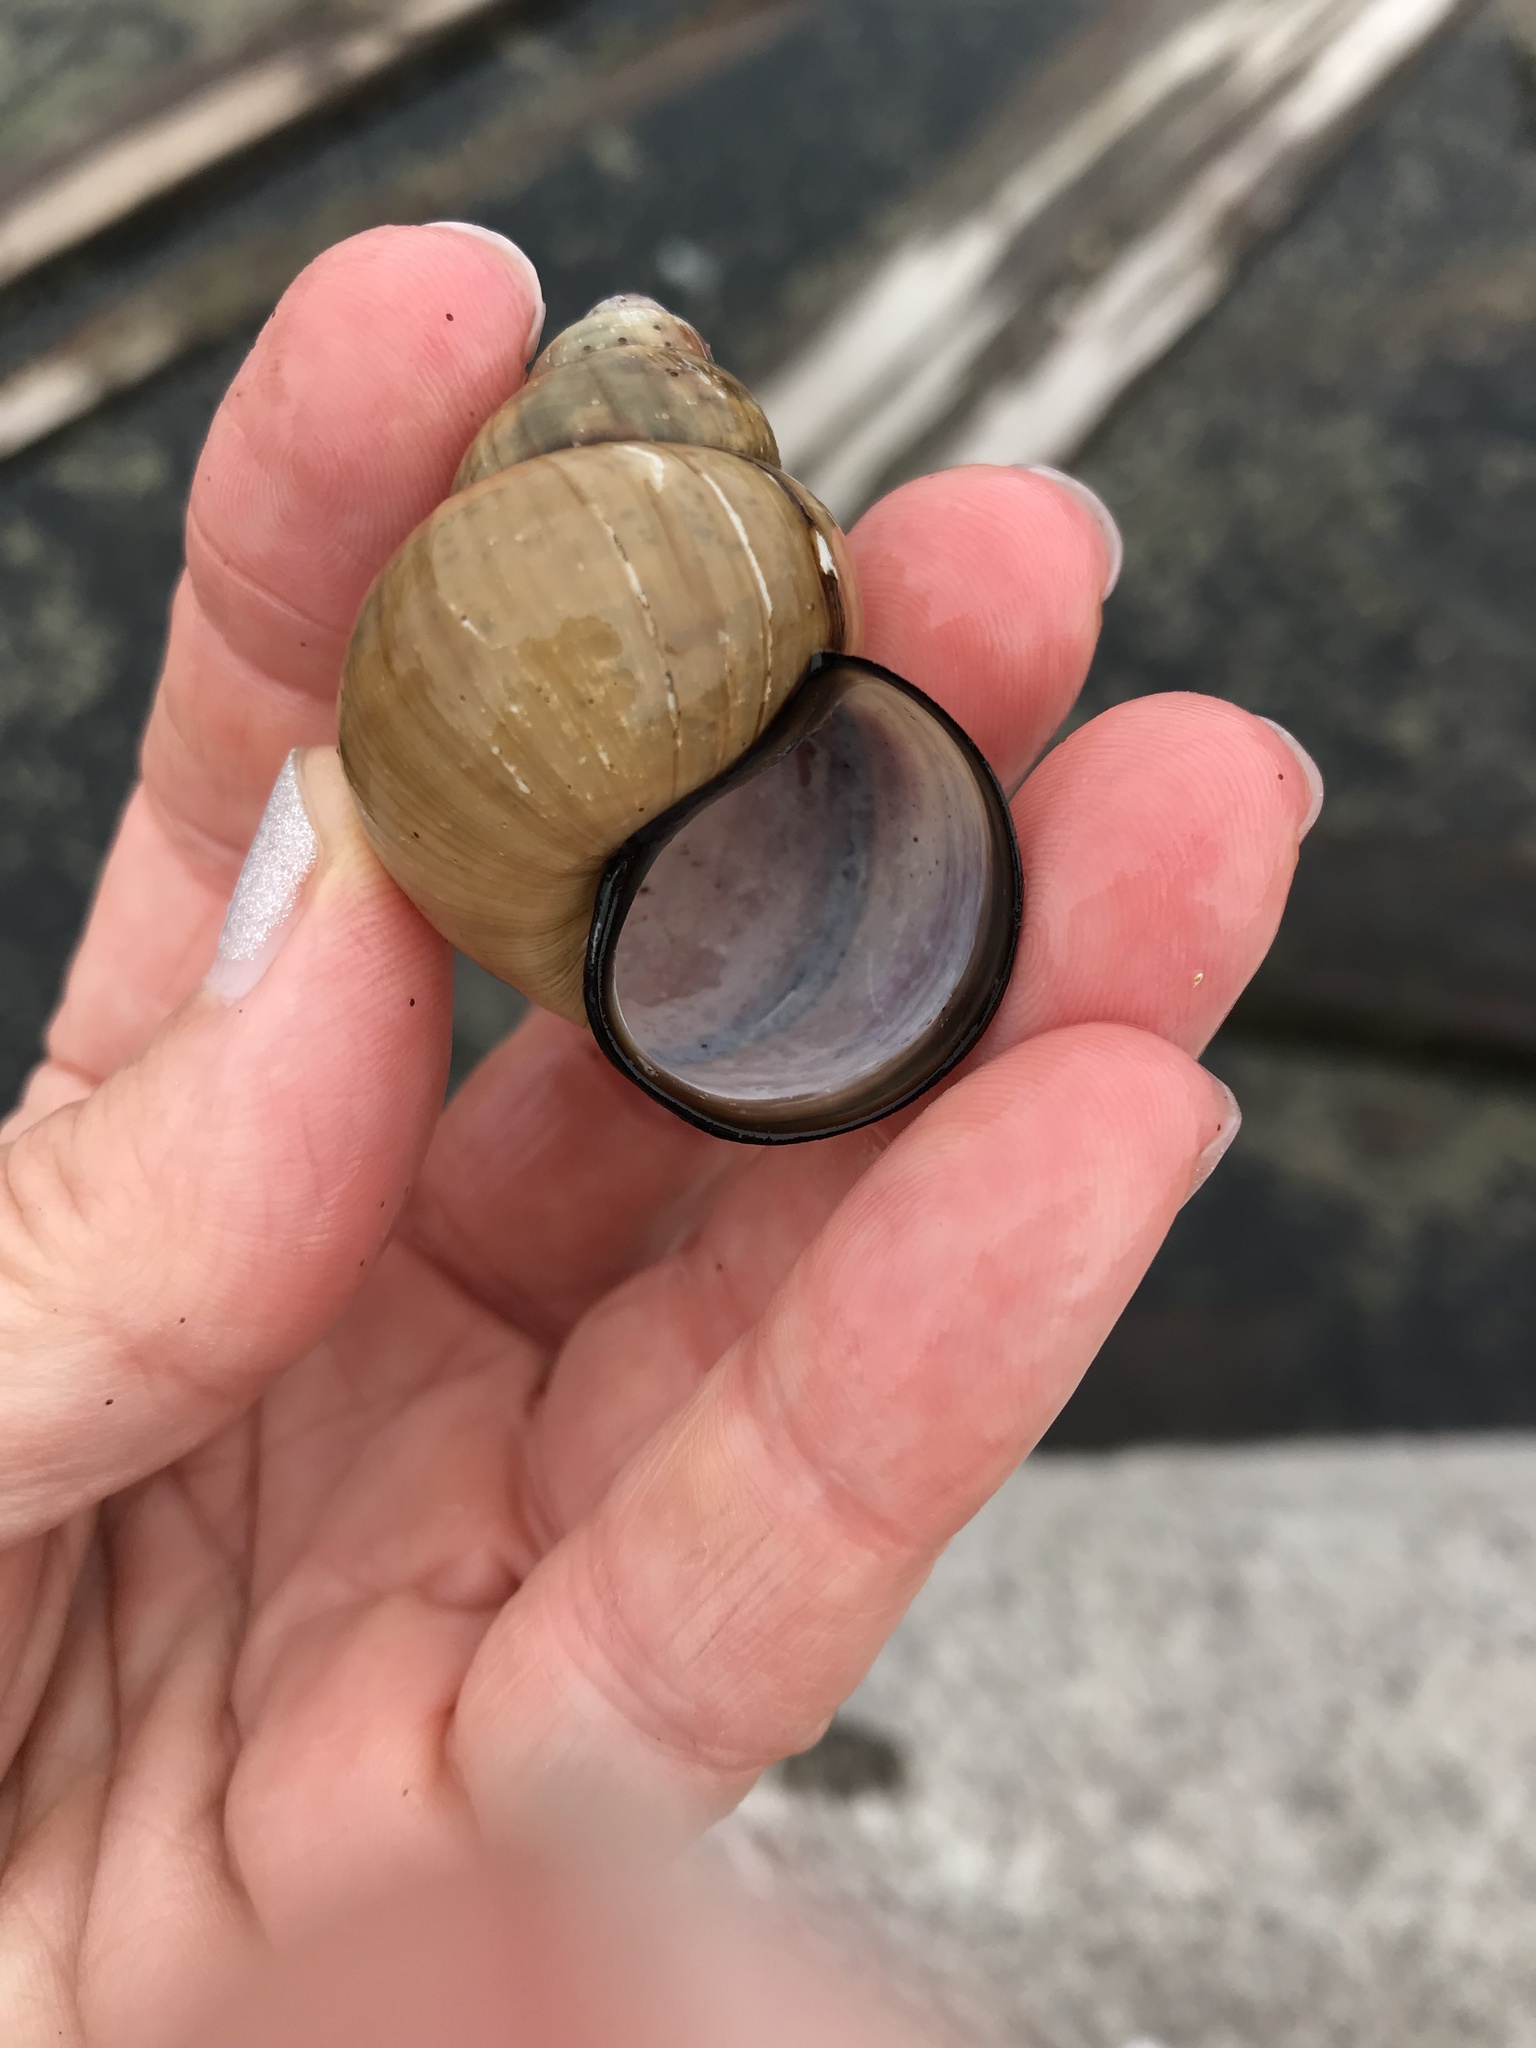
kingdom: Animalia
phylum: Mollusca
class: Gastropoda
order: Architaenioglossa
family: Viviparidae
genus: Cipangopaludina
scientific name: Cipangopaludina chinensis
